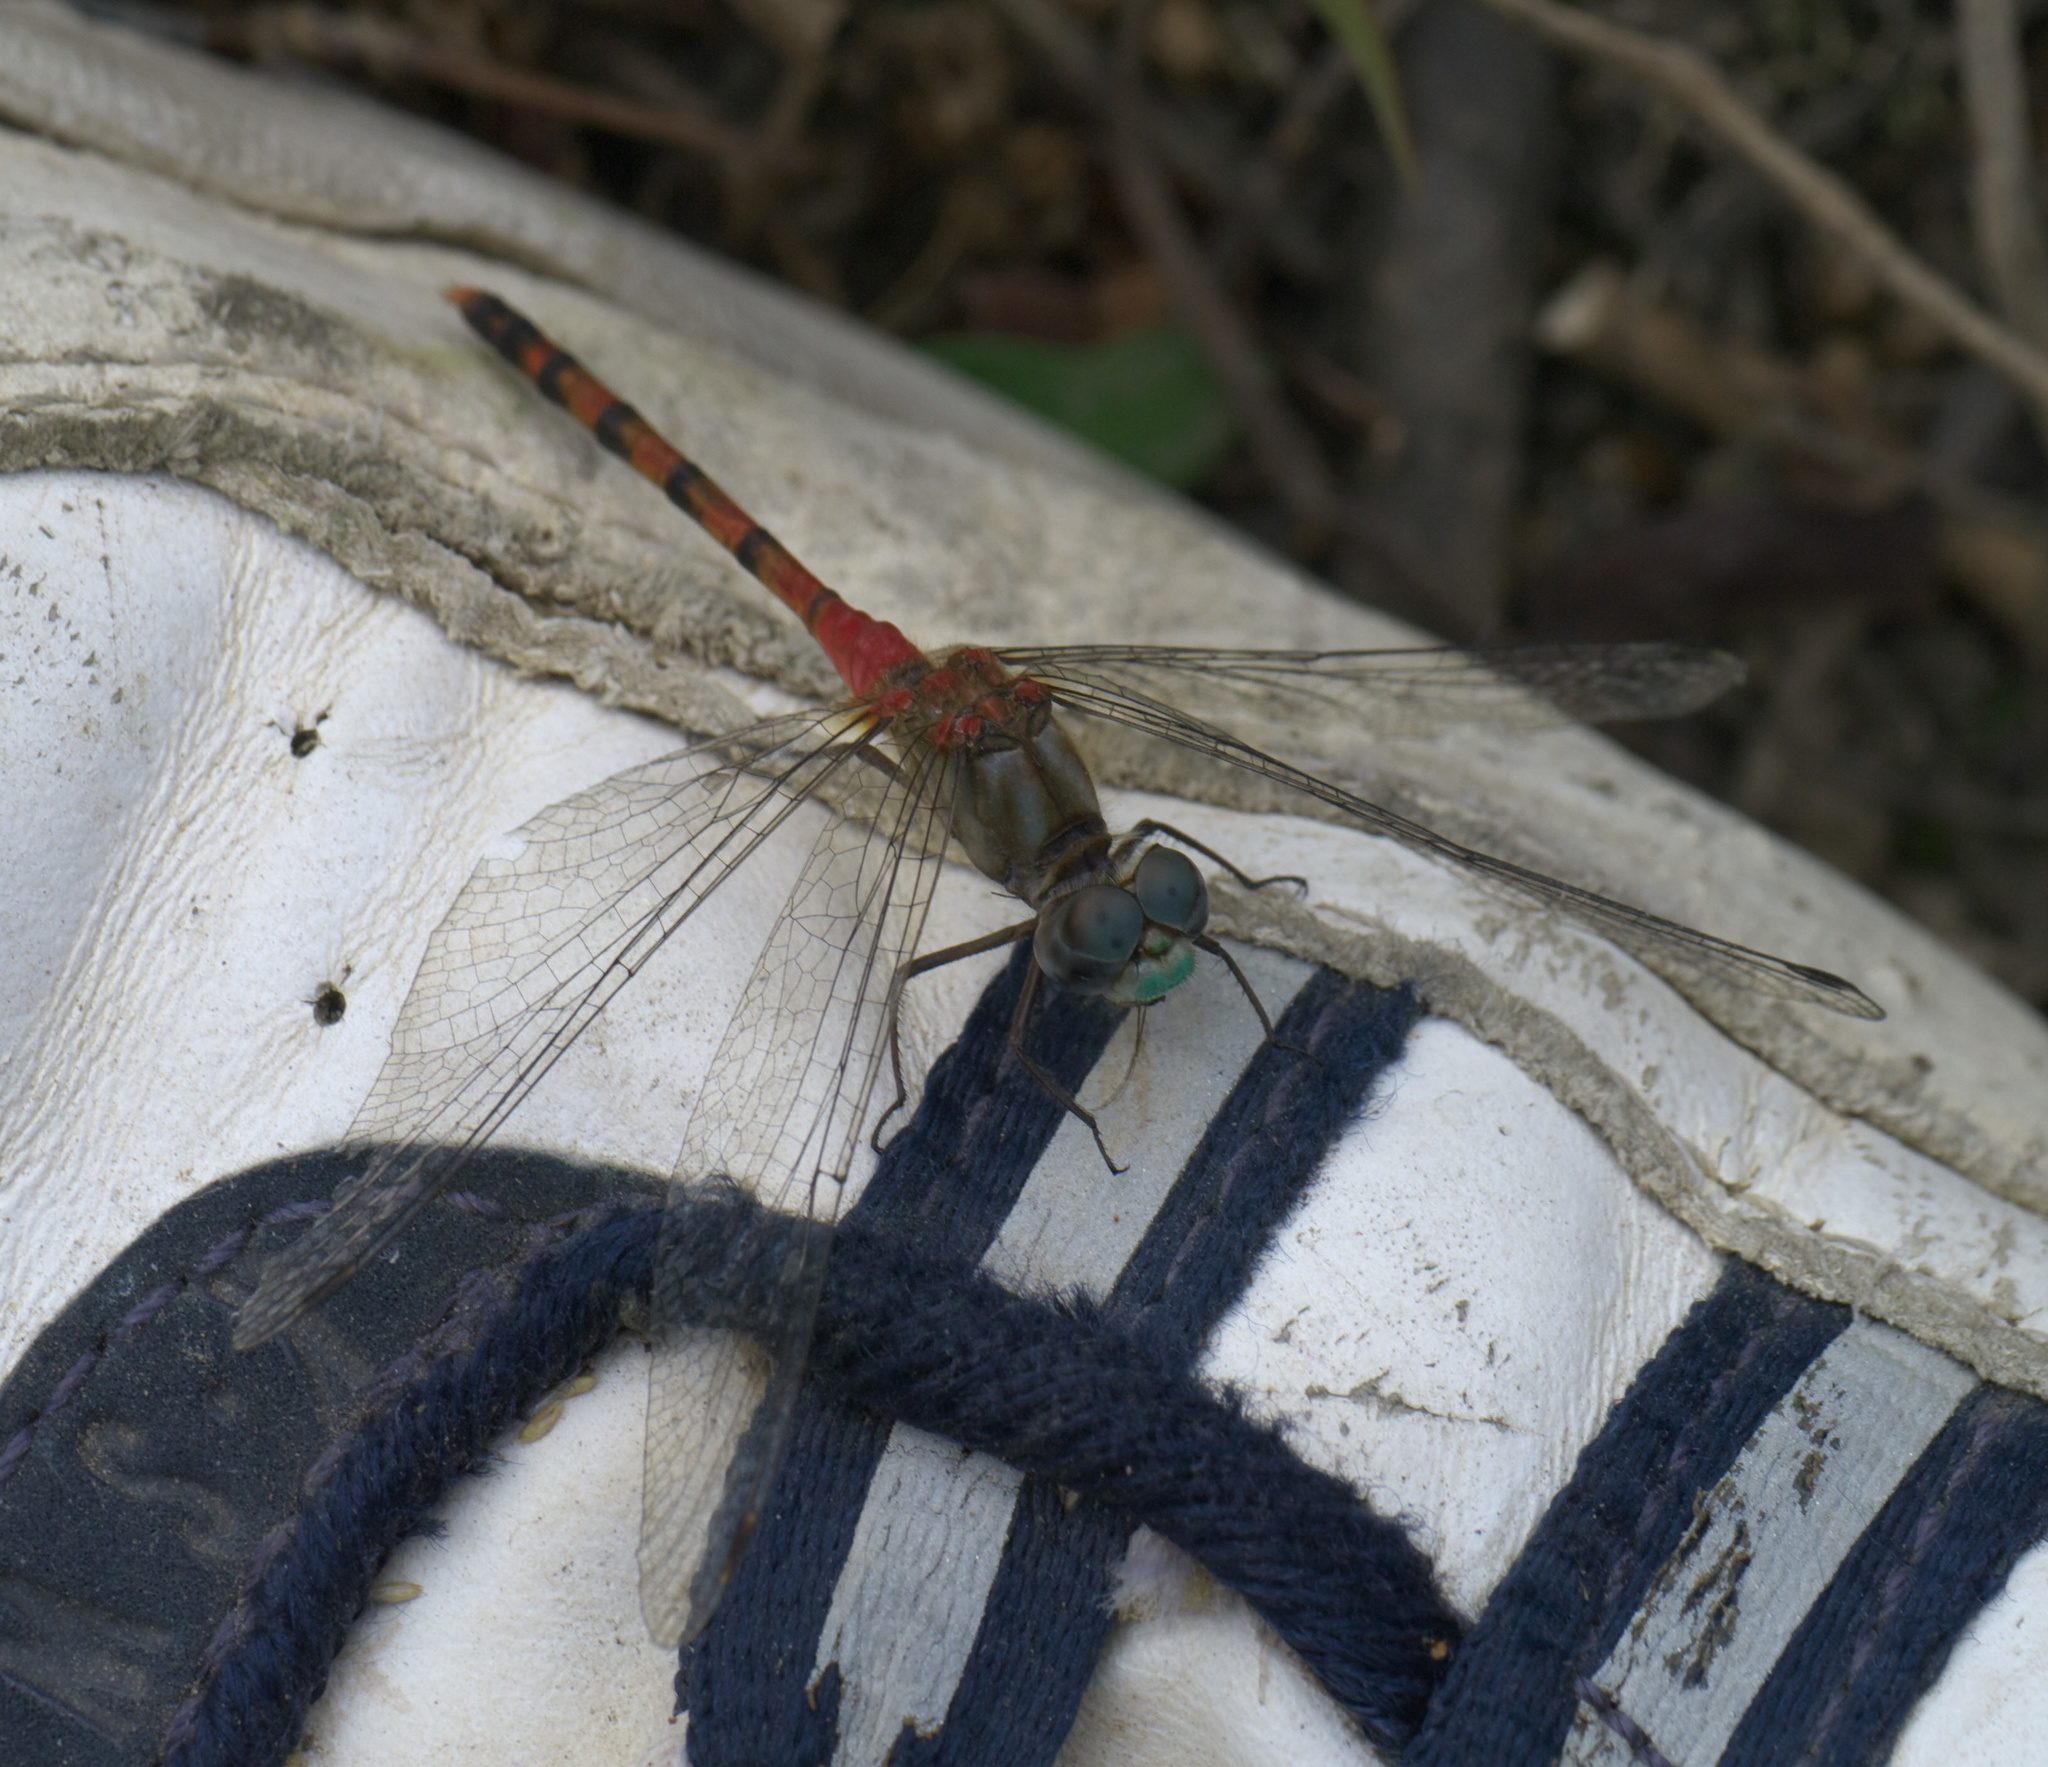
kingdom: Animalia
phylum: Arthropoda
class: Insecta
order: Odonata
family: Libellulidae
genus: Sympetrum
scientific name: Sympetrum ambiguum
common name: Blue-faced meadowhawk
